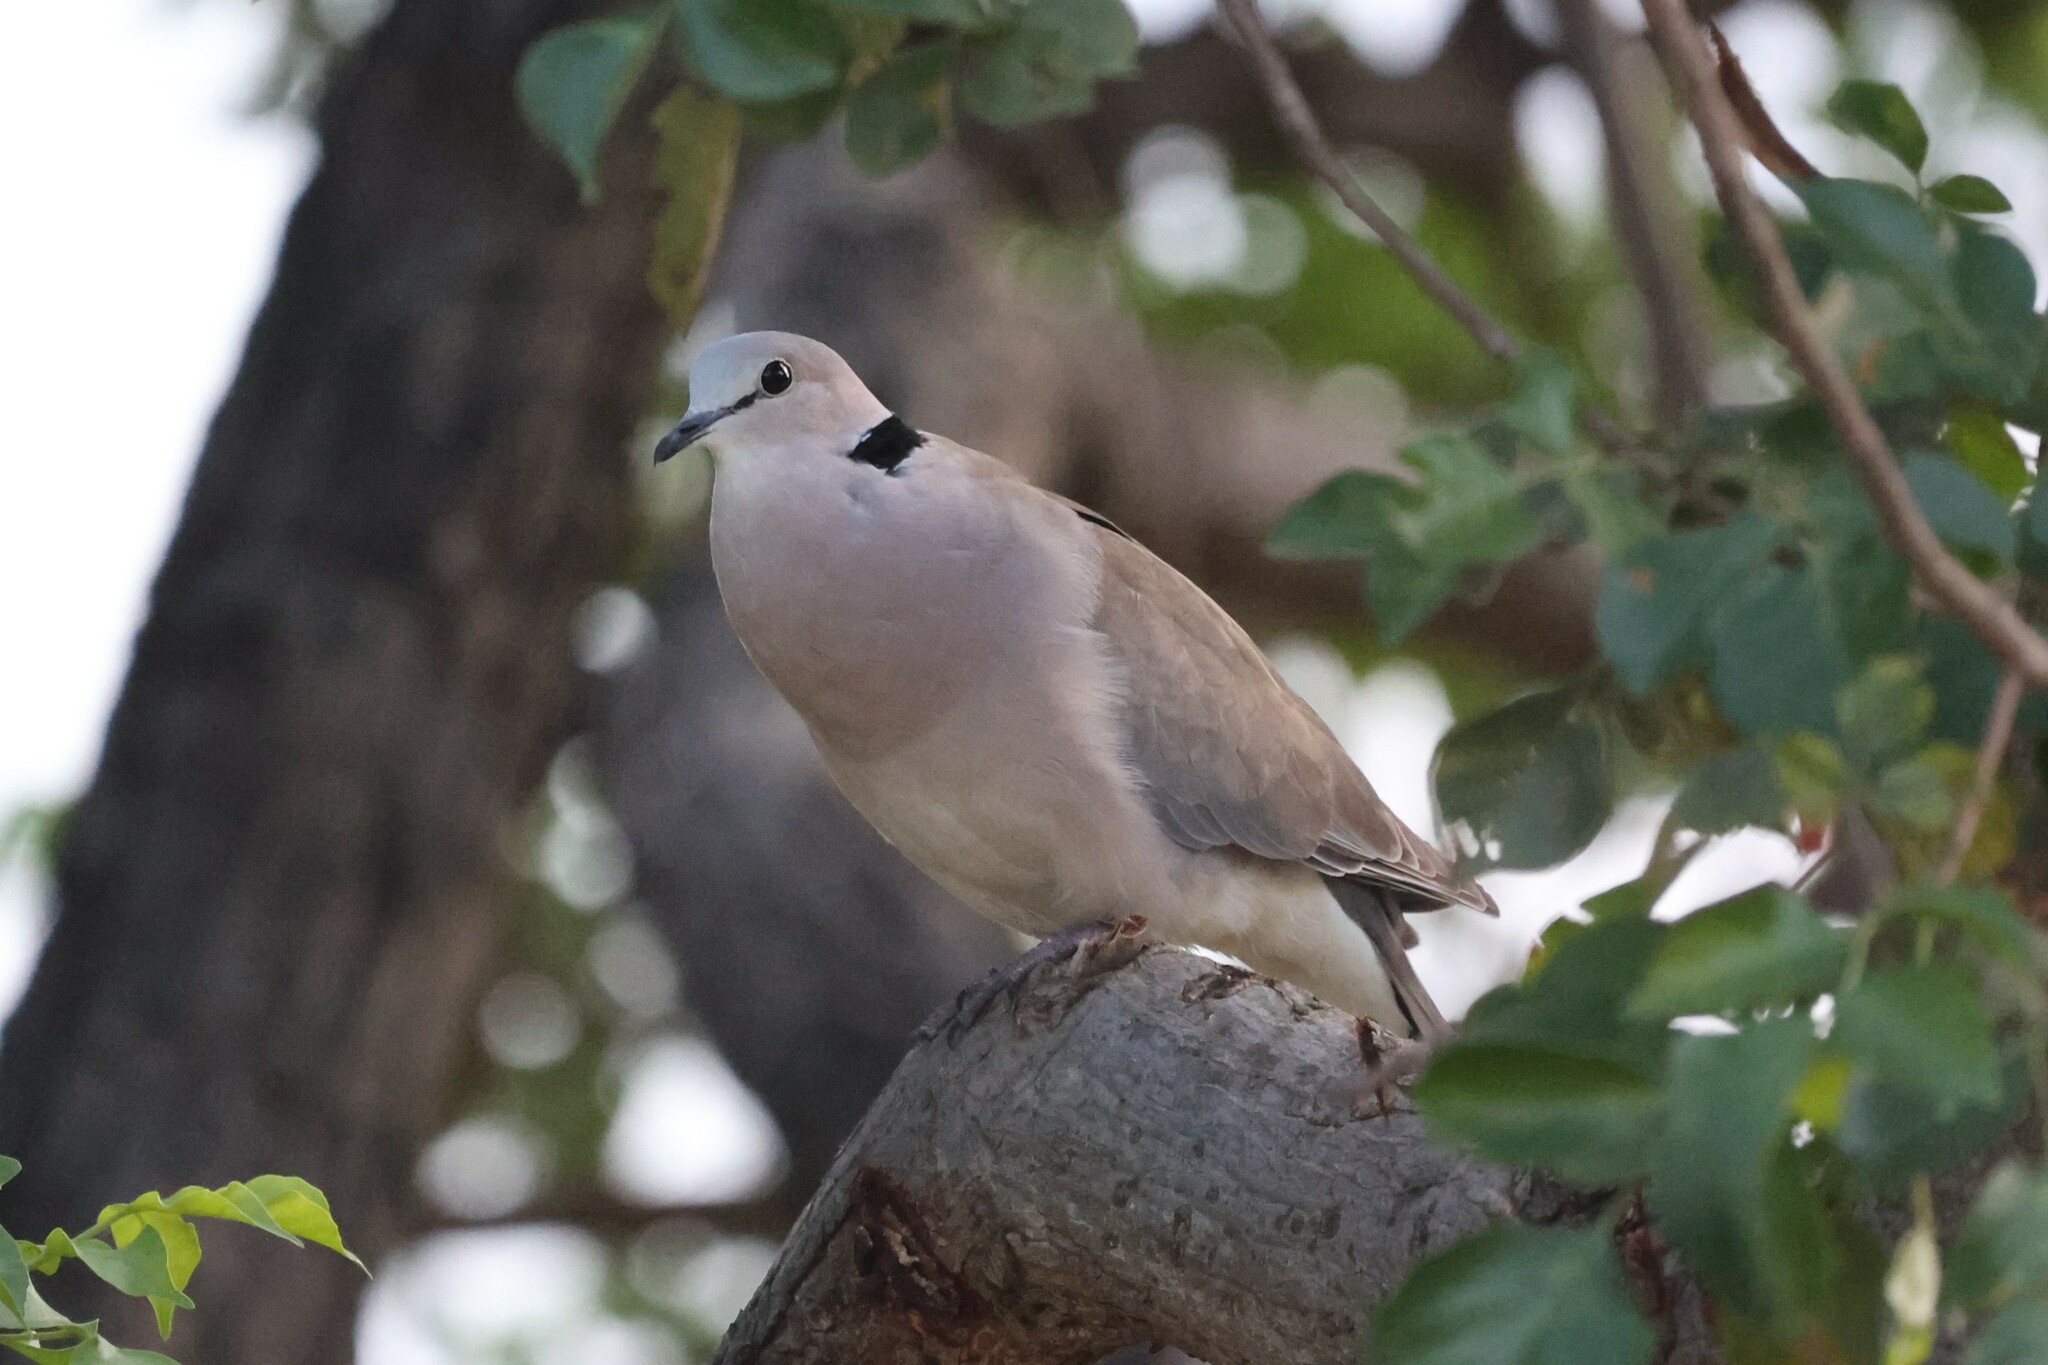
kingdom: Animalia
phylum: Chordata
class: Aves
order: Columbiformes
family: Columbidae
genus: Streptopelia
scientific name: Streptopelia capicola
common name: Ring-necked dove
